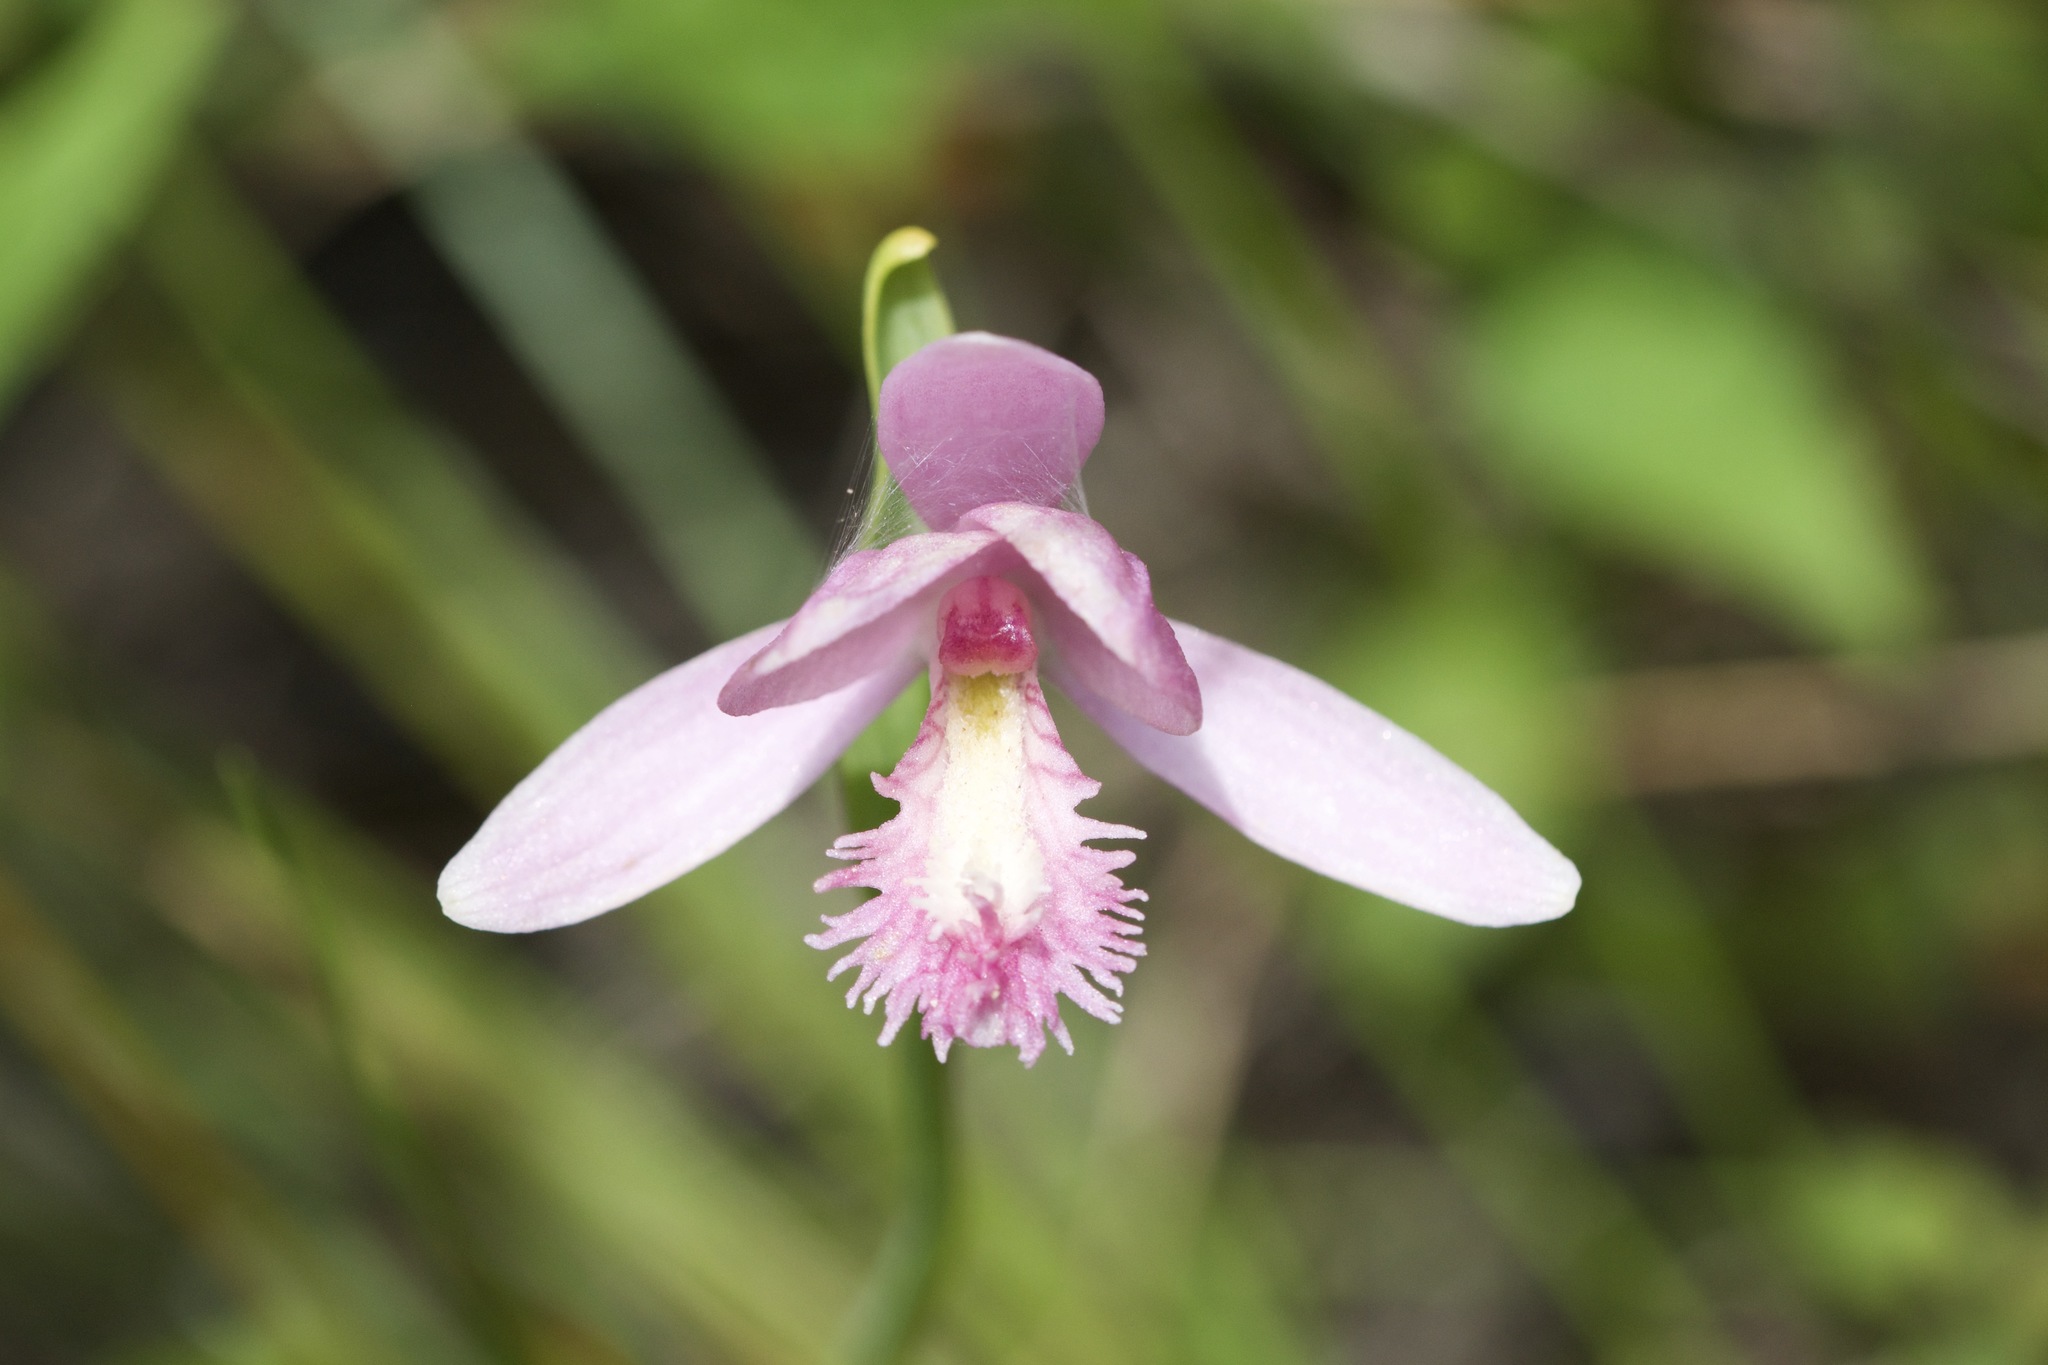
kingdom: Plantae
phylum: Tracheophyta
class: Liliopsida
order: Asparagales
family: Orchidaceae
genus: Pogonia
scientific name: Pogonia ophioglossoides
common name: Rose pogonia
